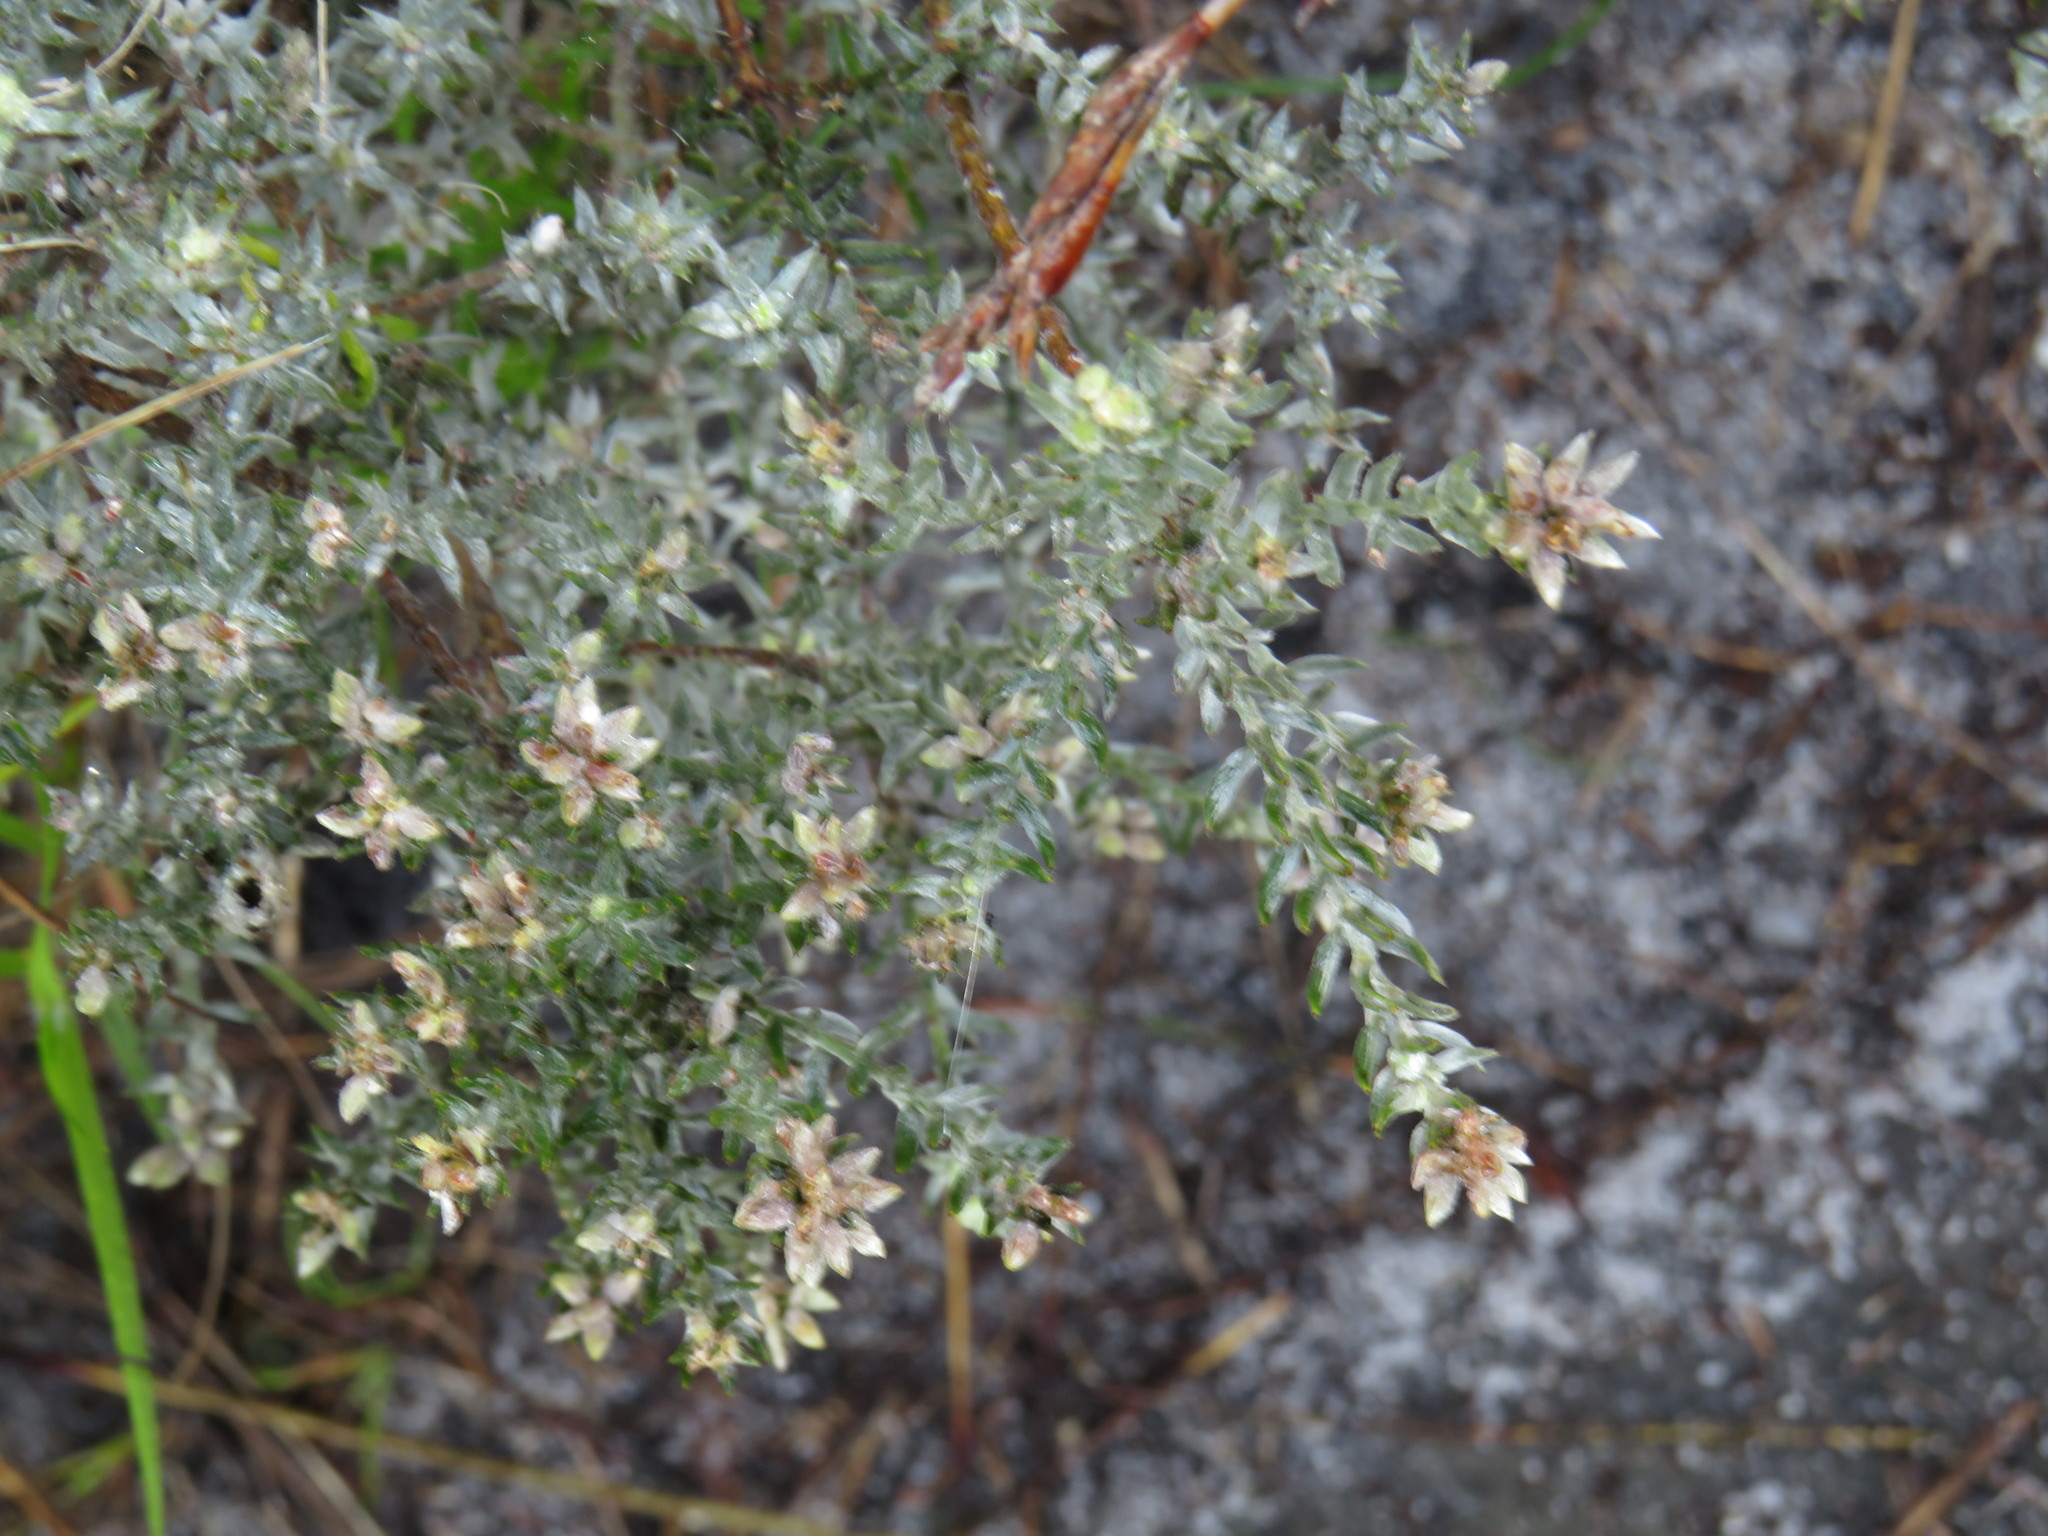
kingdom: Plantae
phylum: Tracheophyta
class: Magnoliopsida
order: Fabales
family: Fabaceae
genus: Amphithalea
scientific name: Amphithalea ericifolia
